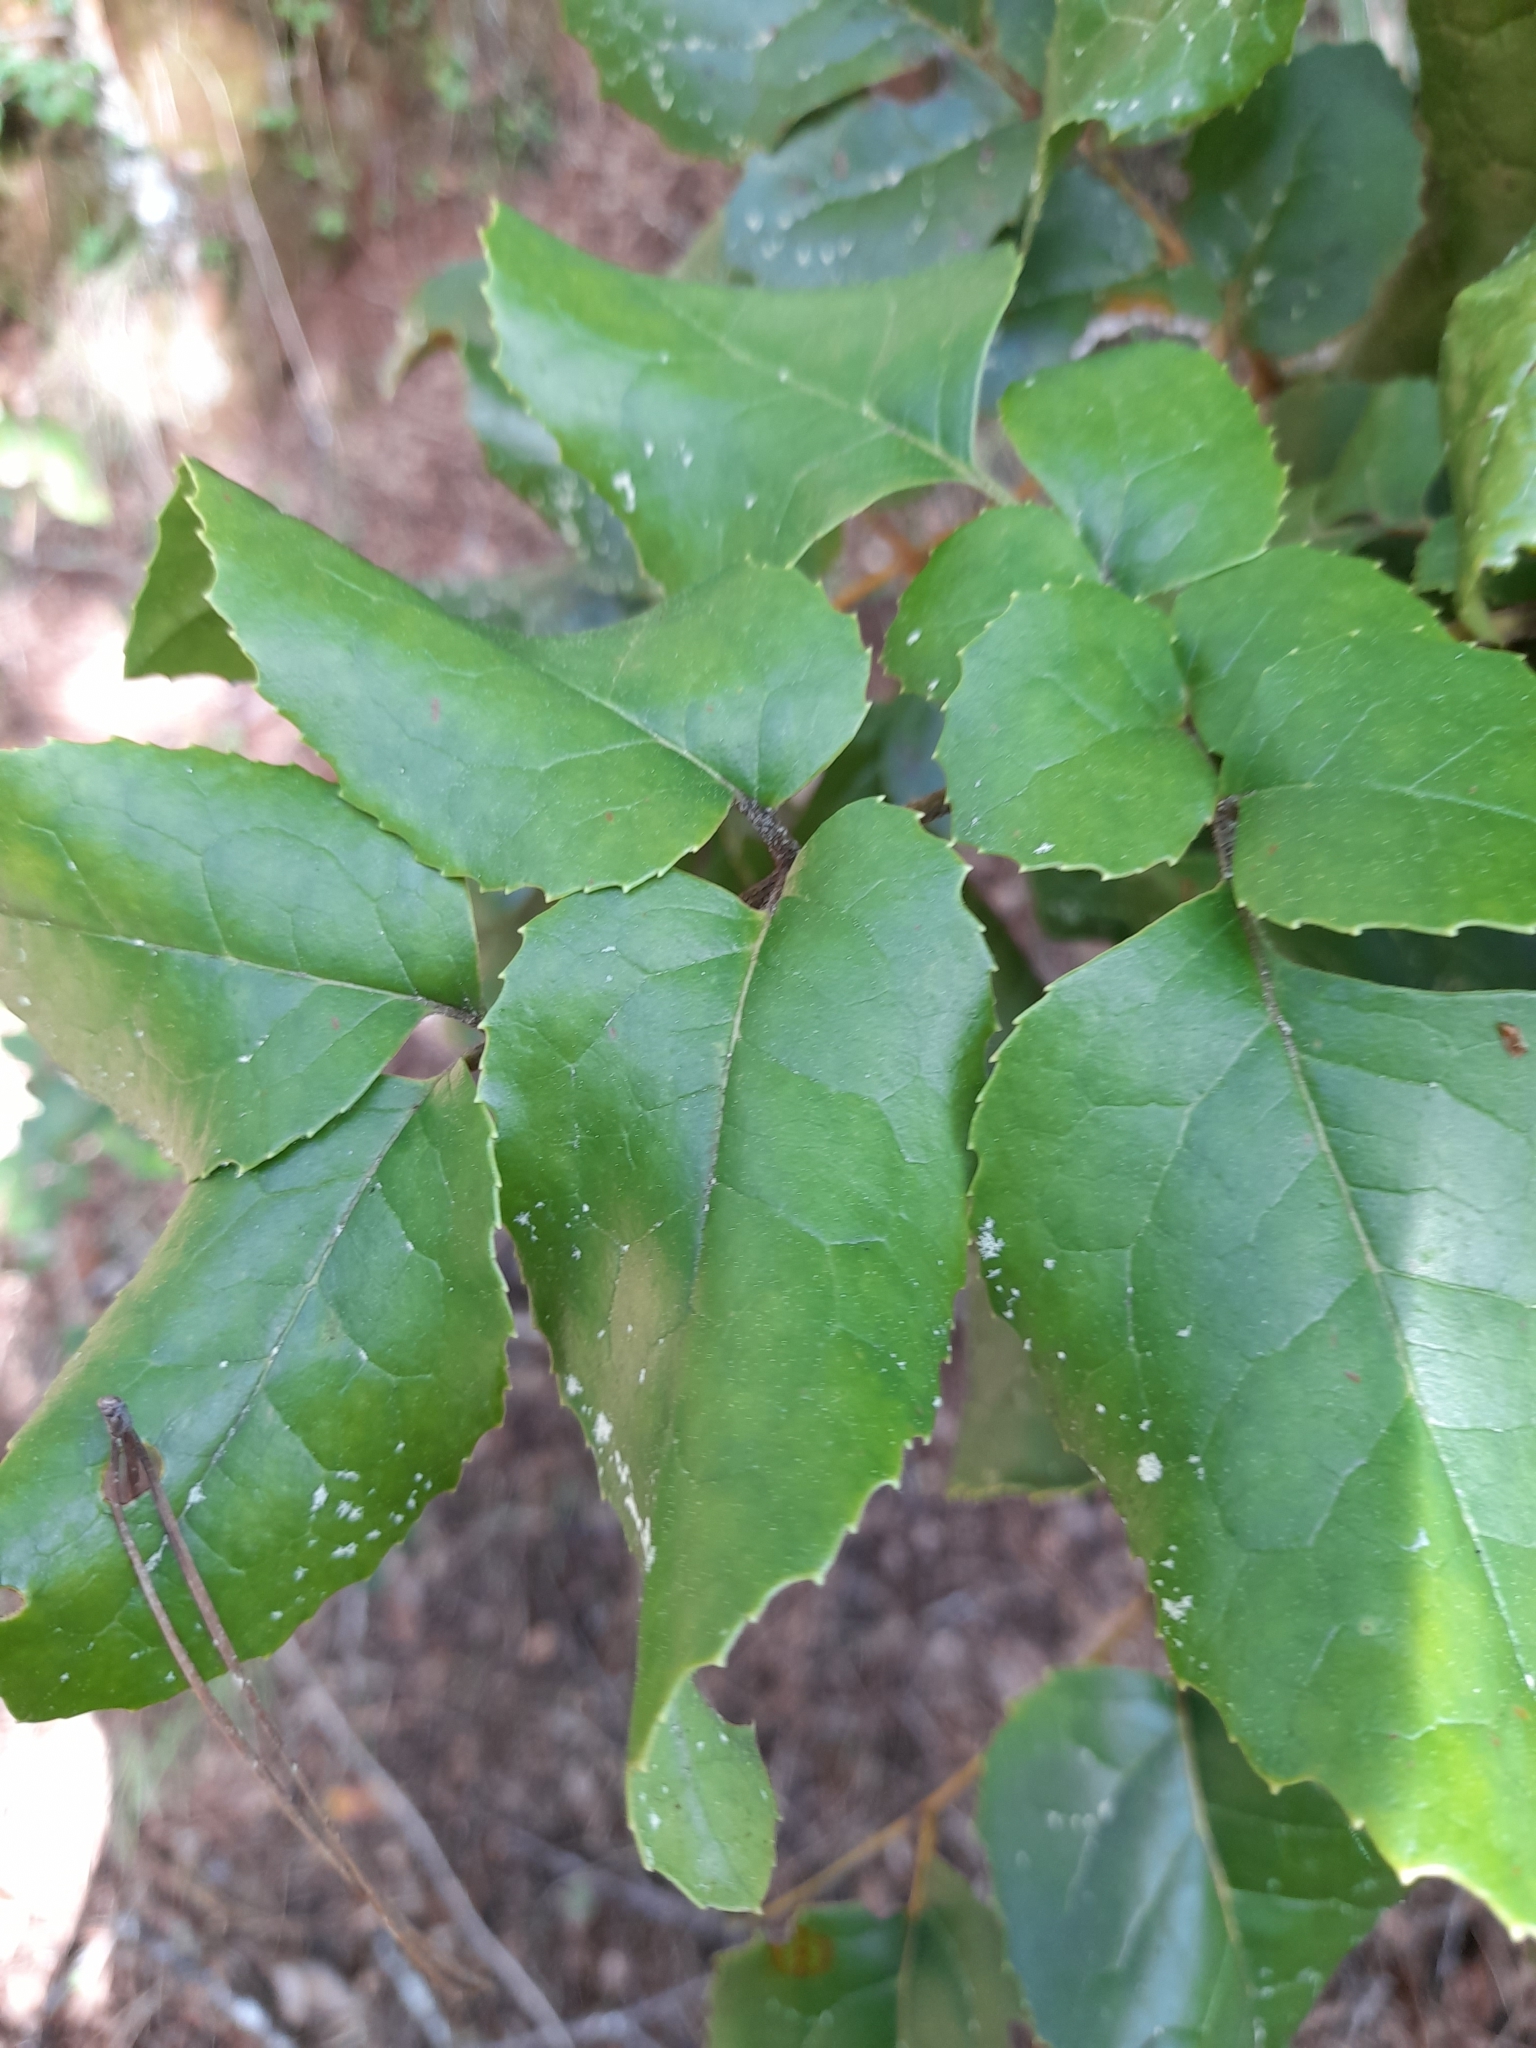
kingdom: Plantae
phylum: Tracheophyta
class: Magnoliopsida
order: Proteales
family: Proteaceae
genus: Gevuina
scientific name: Gevuina avellana
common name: Chilean hazel
